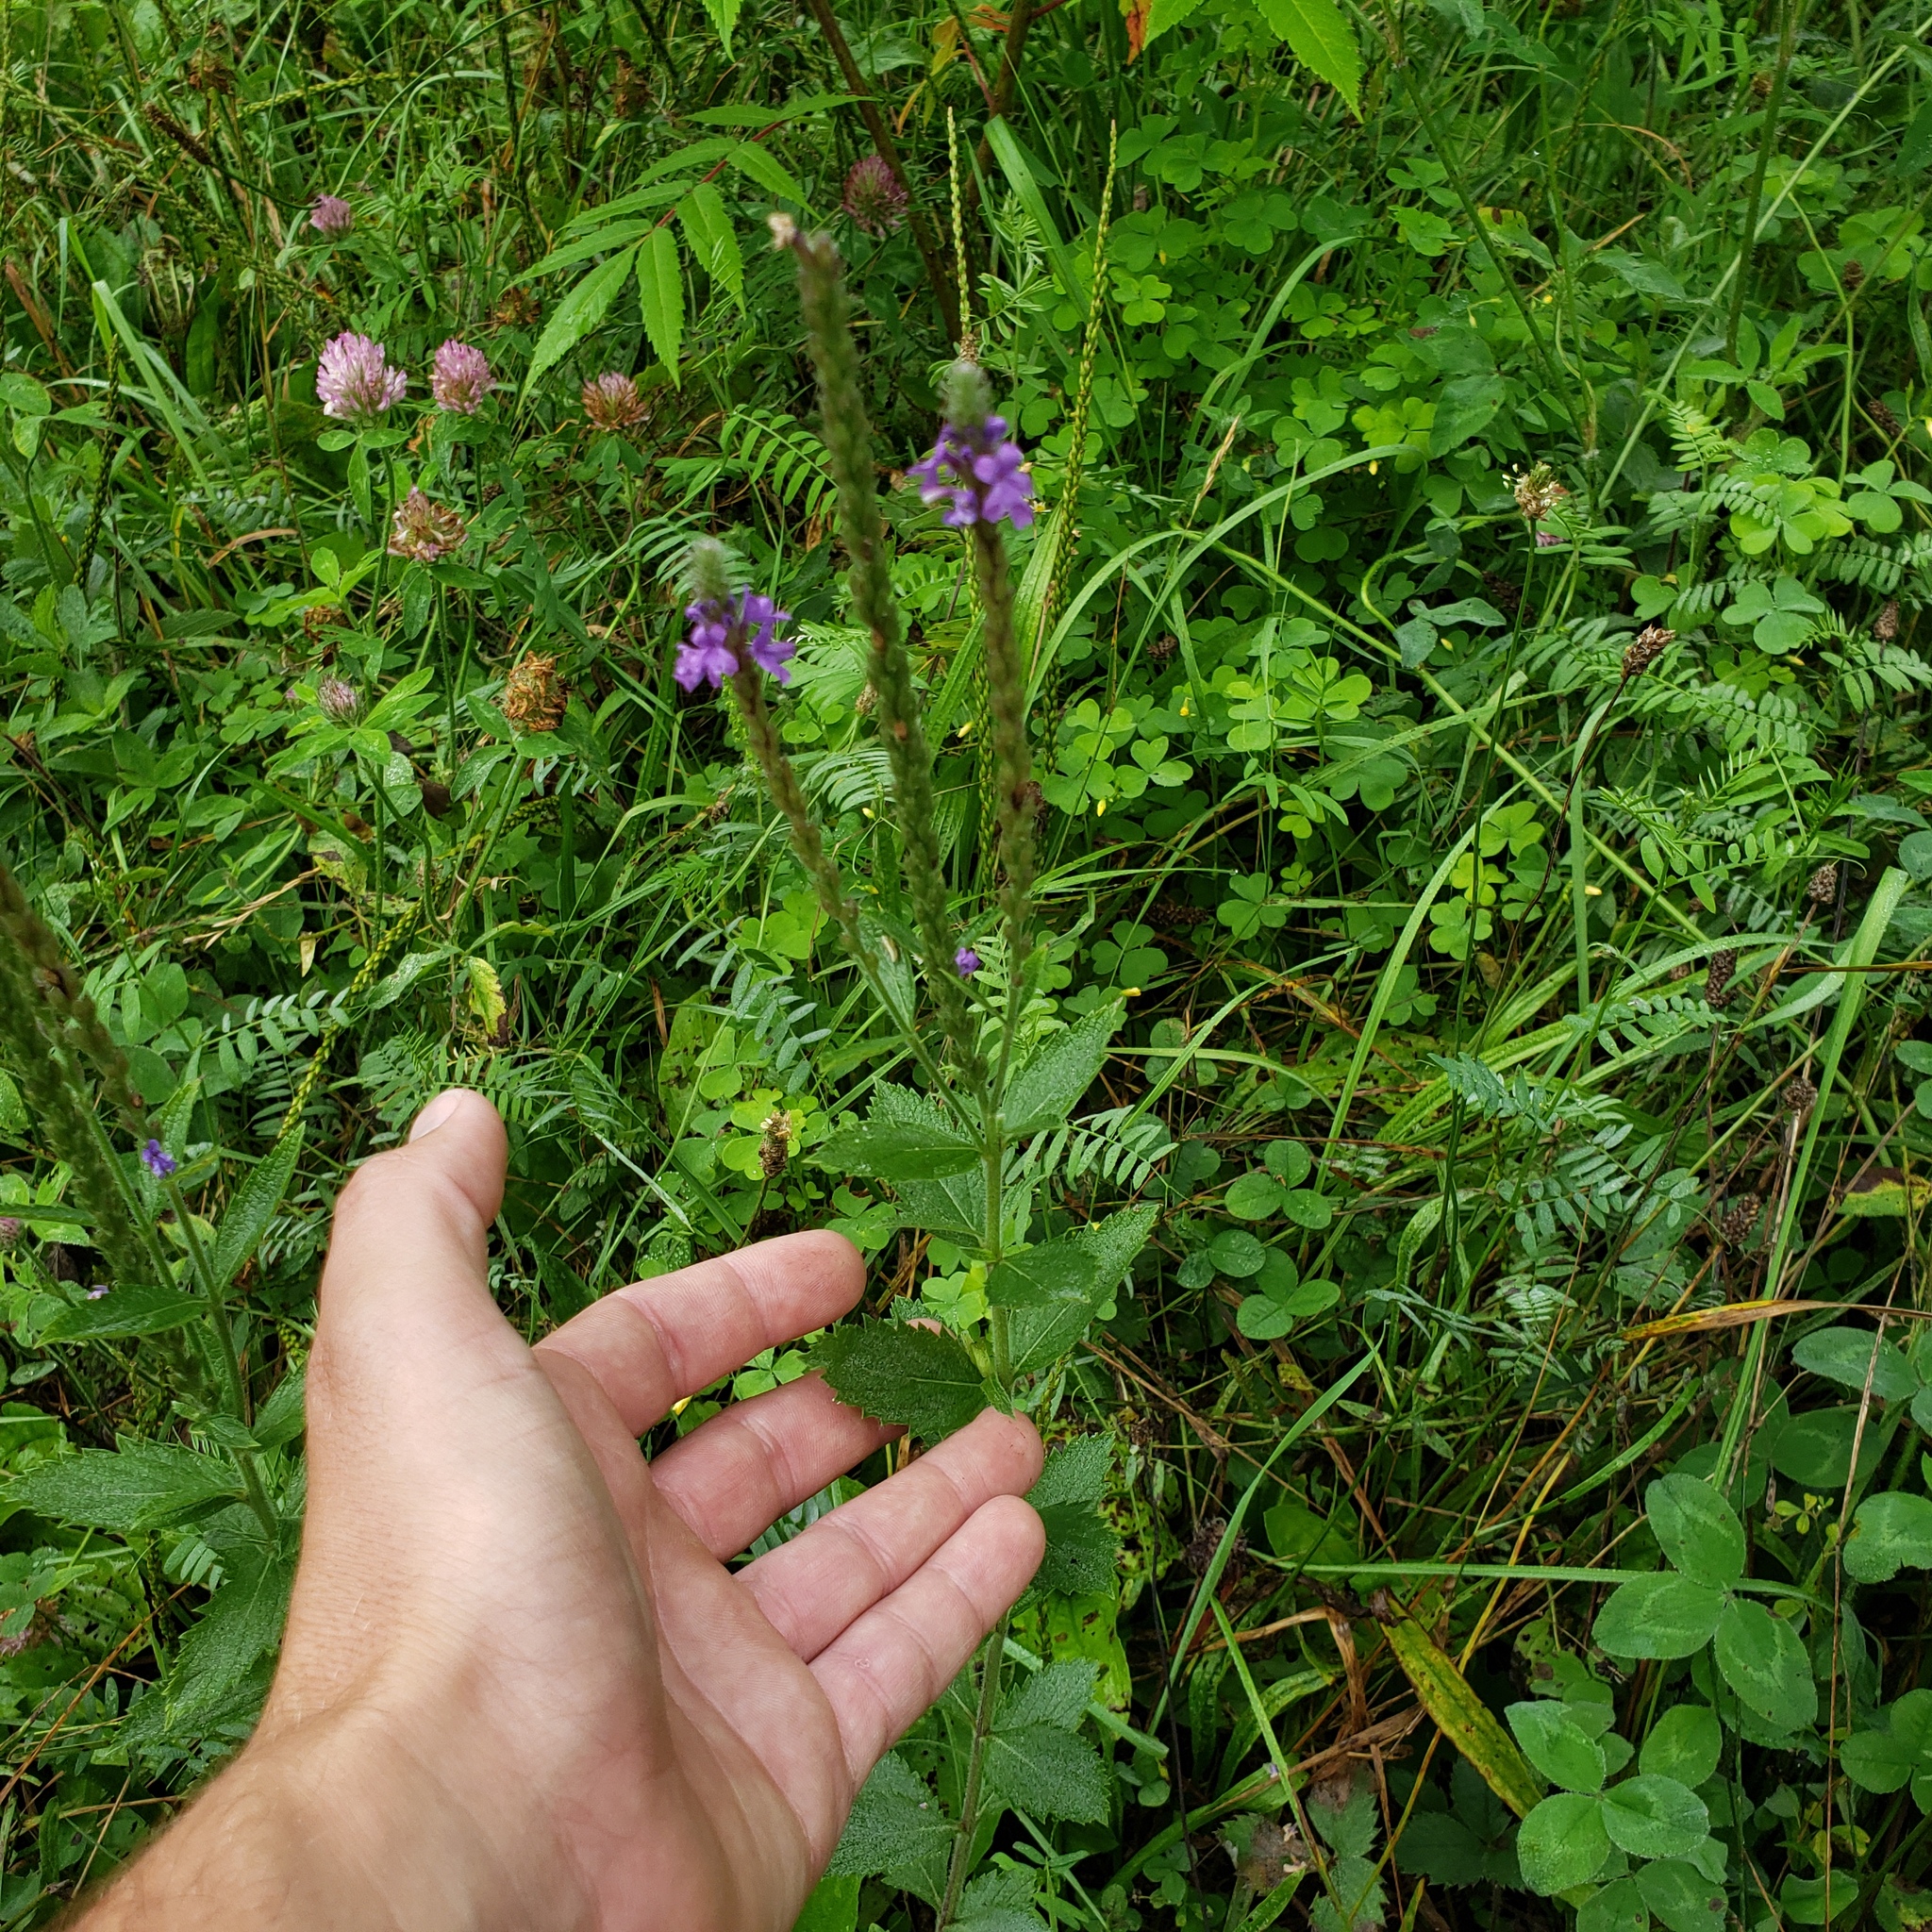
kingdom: Plantae
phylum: Tracheophyta
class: Magnoliopsida
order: Lamiales
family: Verbenaceae
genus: Verbena
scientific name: Verbena stricta
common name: Hoary vervain
